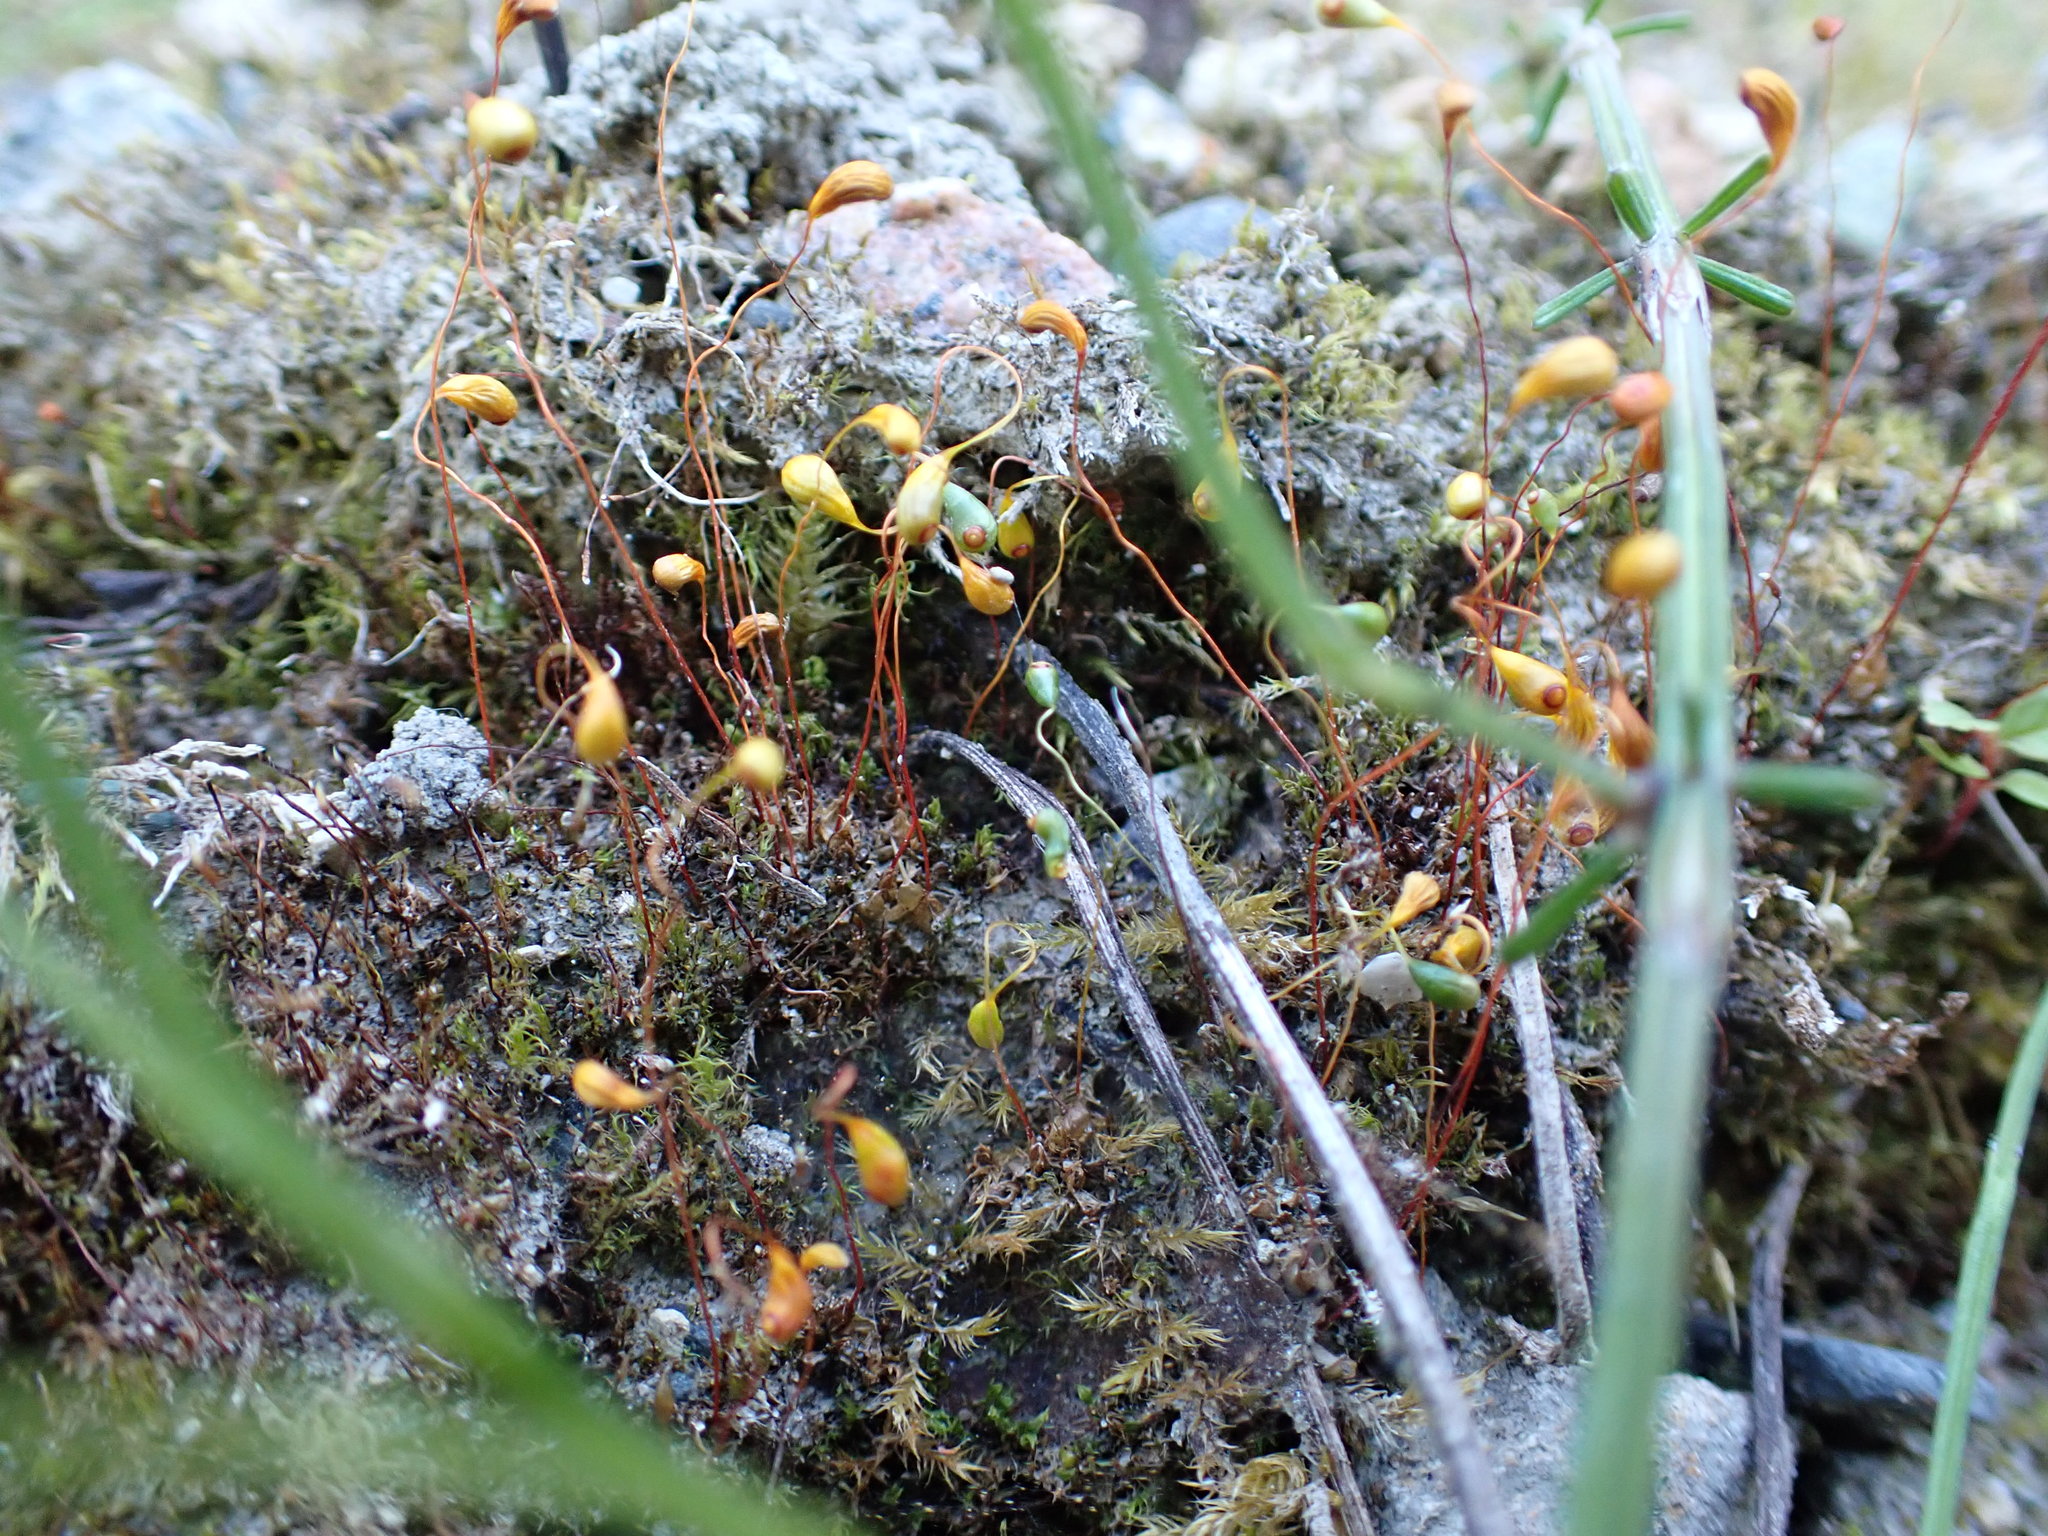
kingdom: Plantae
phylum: Bryophyta
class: Bryopsida
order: Funariales
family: Funariaceae
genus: Funaria
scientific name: Funaria hygrometrica
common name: Common cord moss
